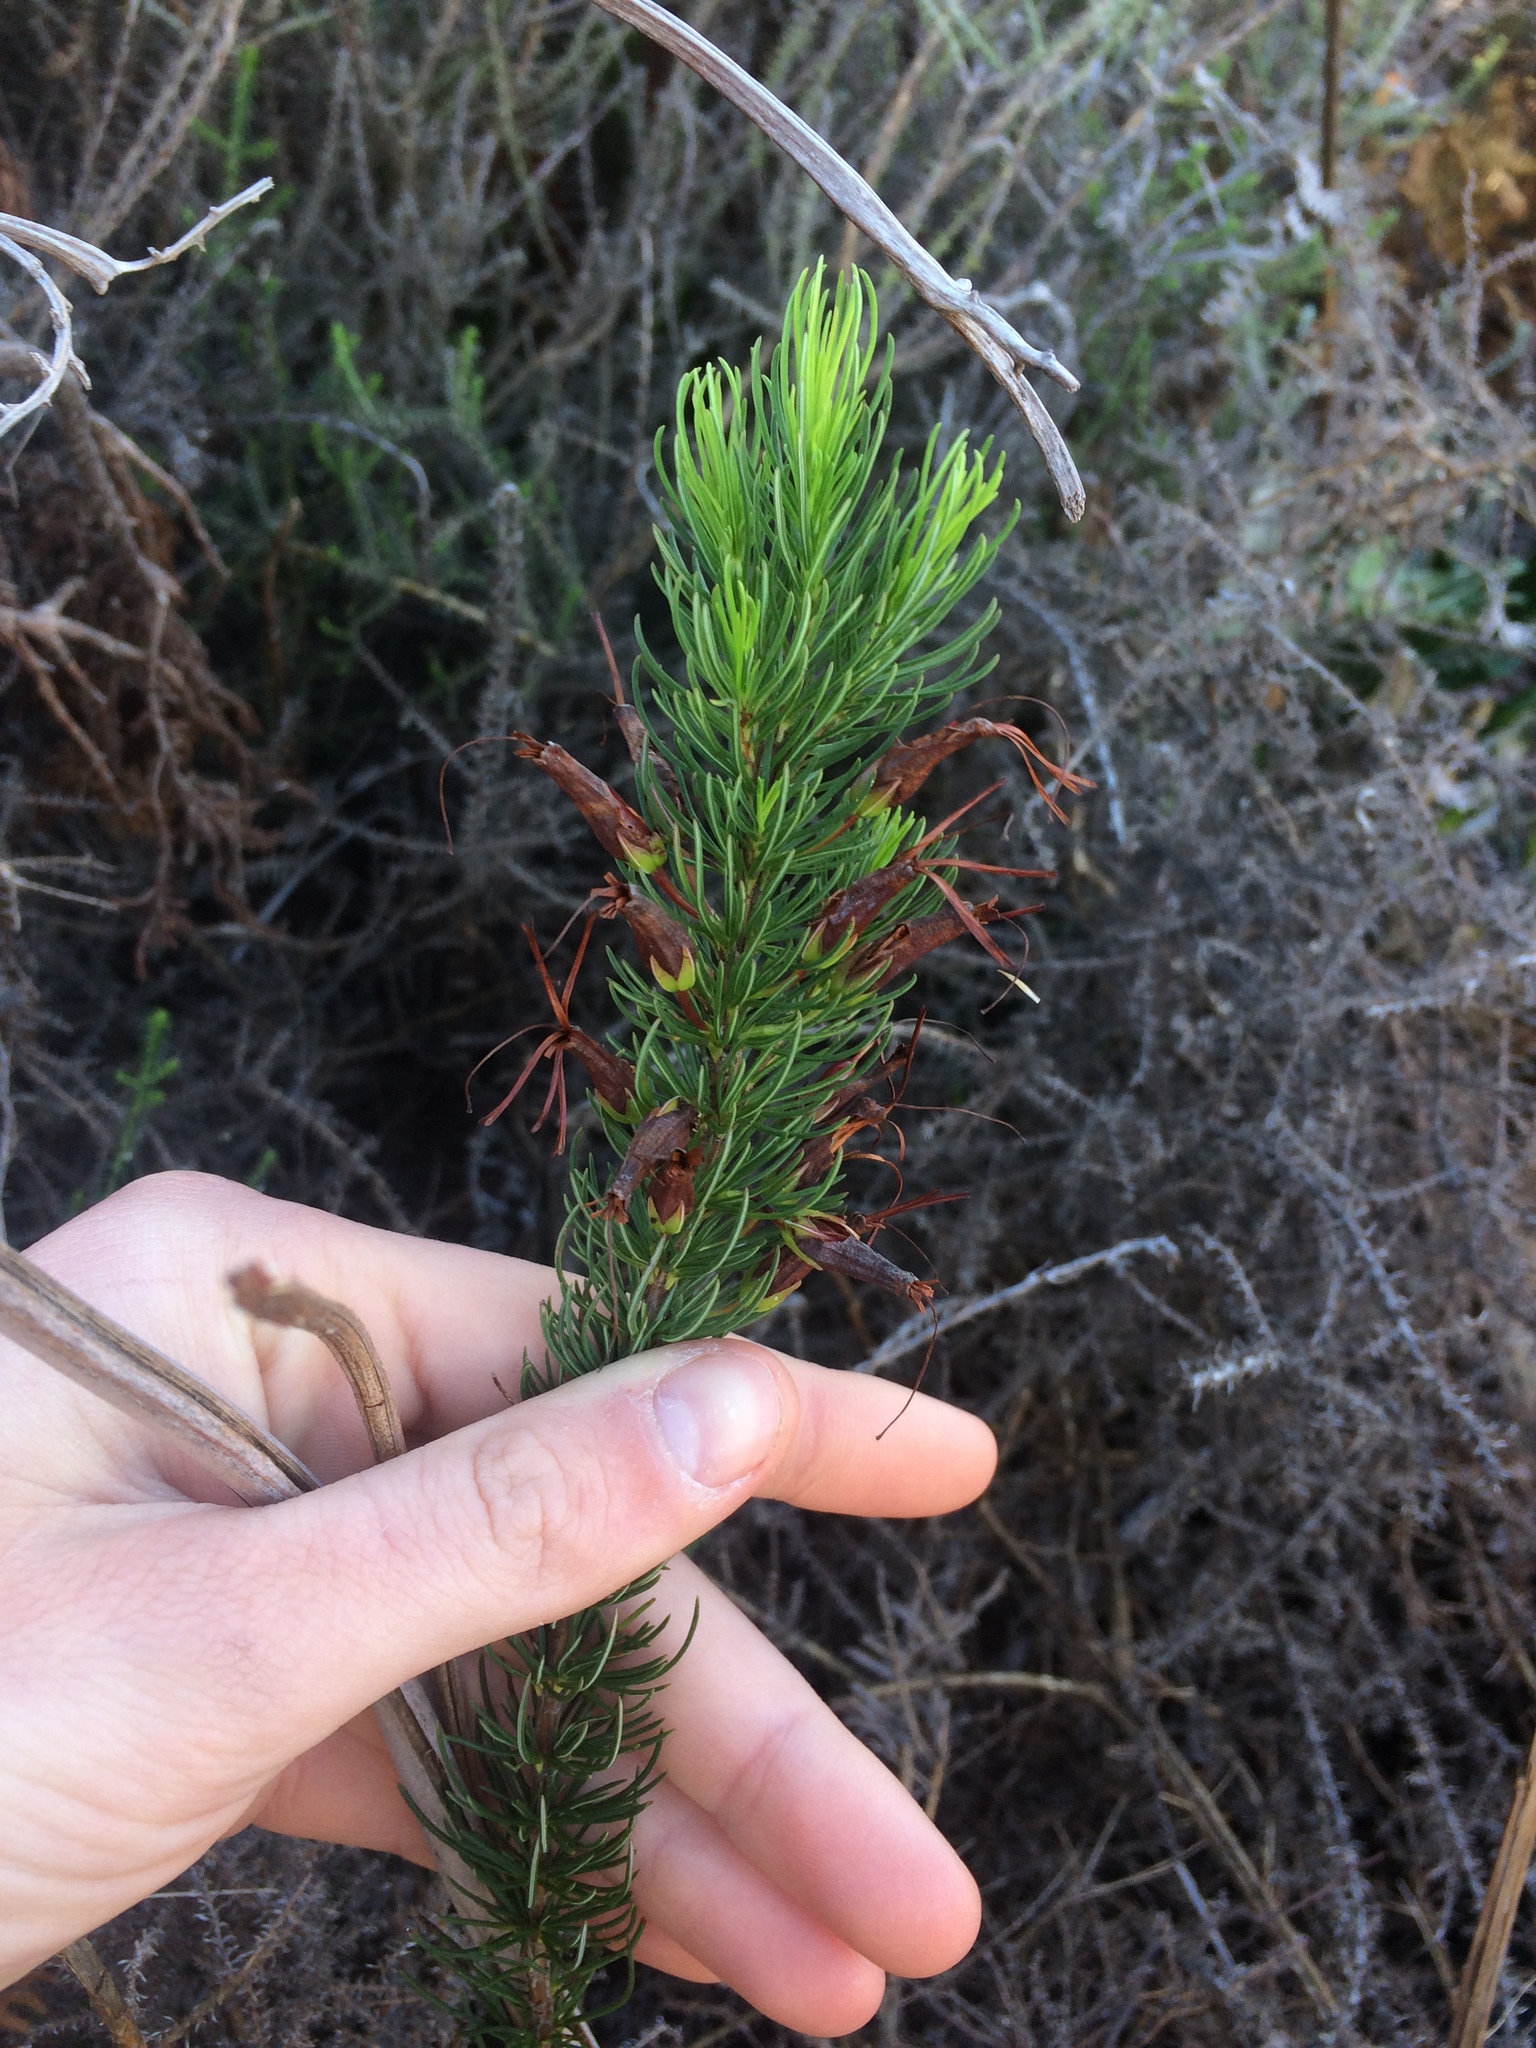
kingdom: Plantae
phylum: Tracheophyta
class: Magnoliopsida
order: Ericales
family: Ericaceae
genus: Erica
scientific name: Erica plukenetii
